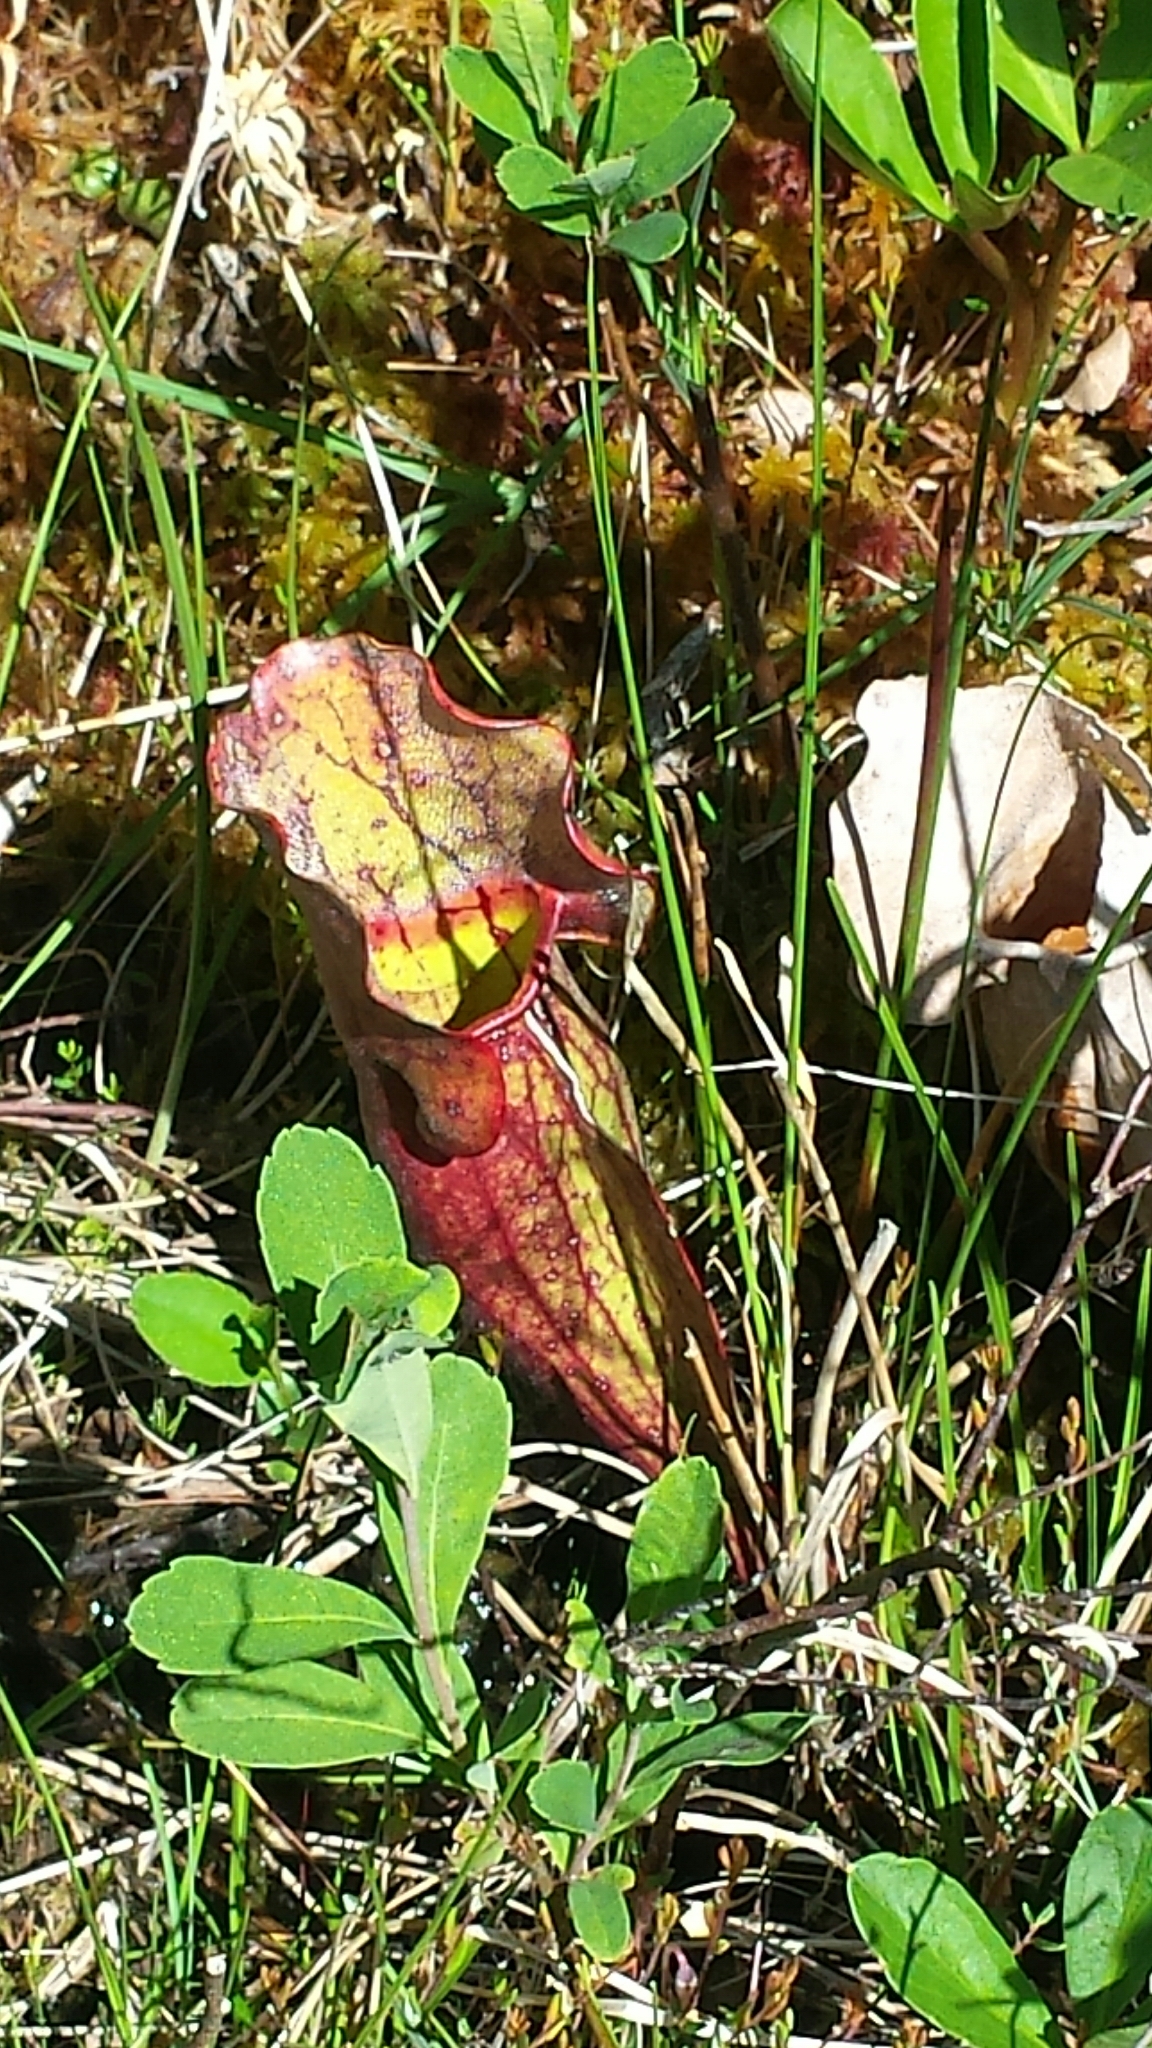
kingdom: Plantae
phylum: Tracheophyta
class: Magnoliopsida
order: Ericales
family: Sarraceniaceae
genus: Sarracenia
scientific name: Sarracenia purpurea
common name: Pitcherplant
